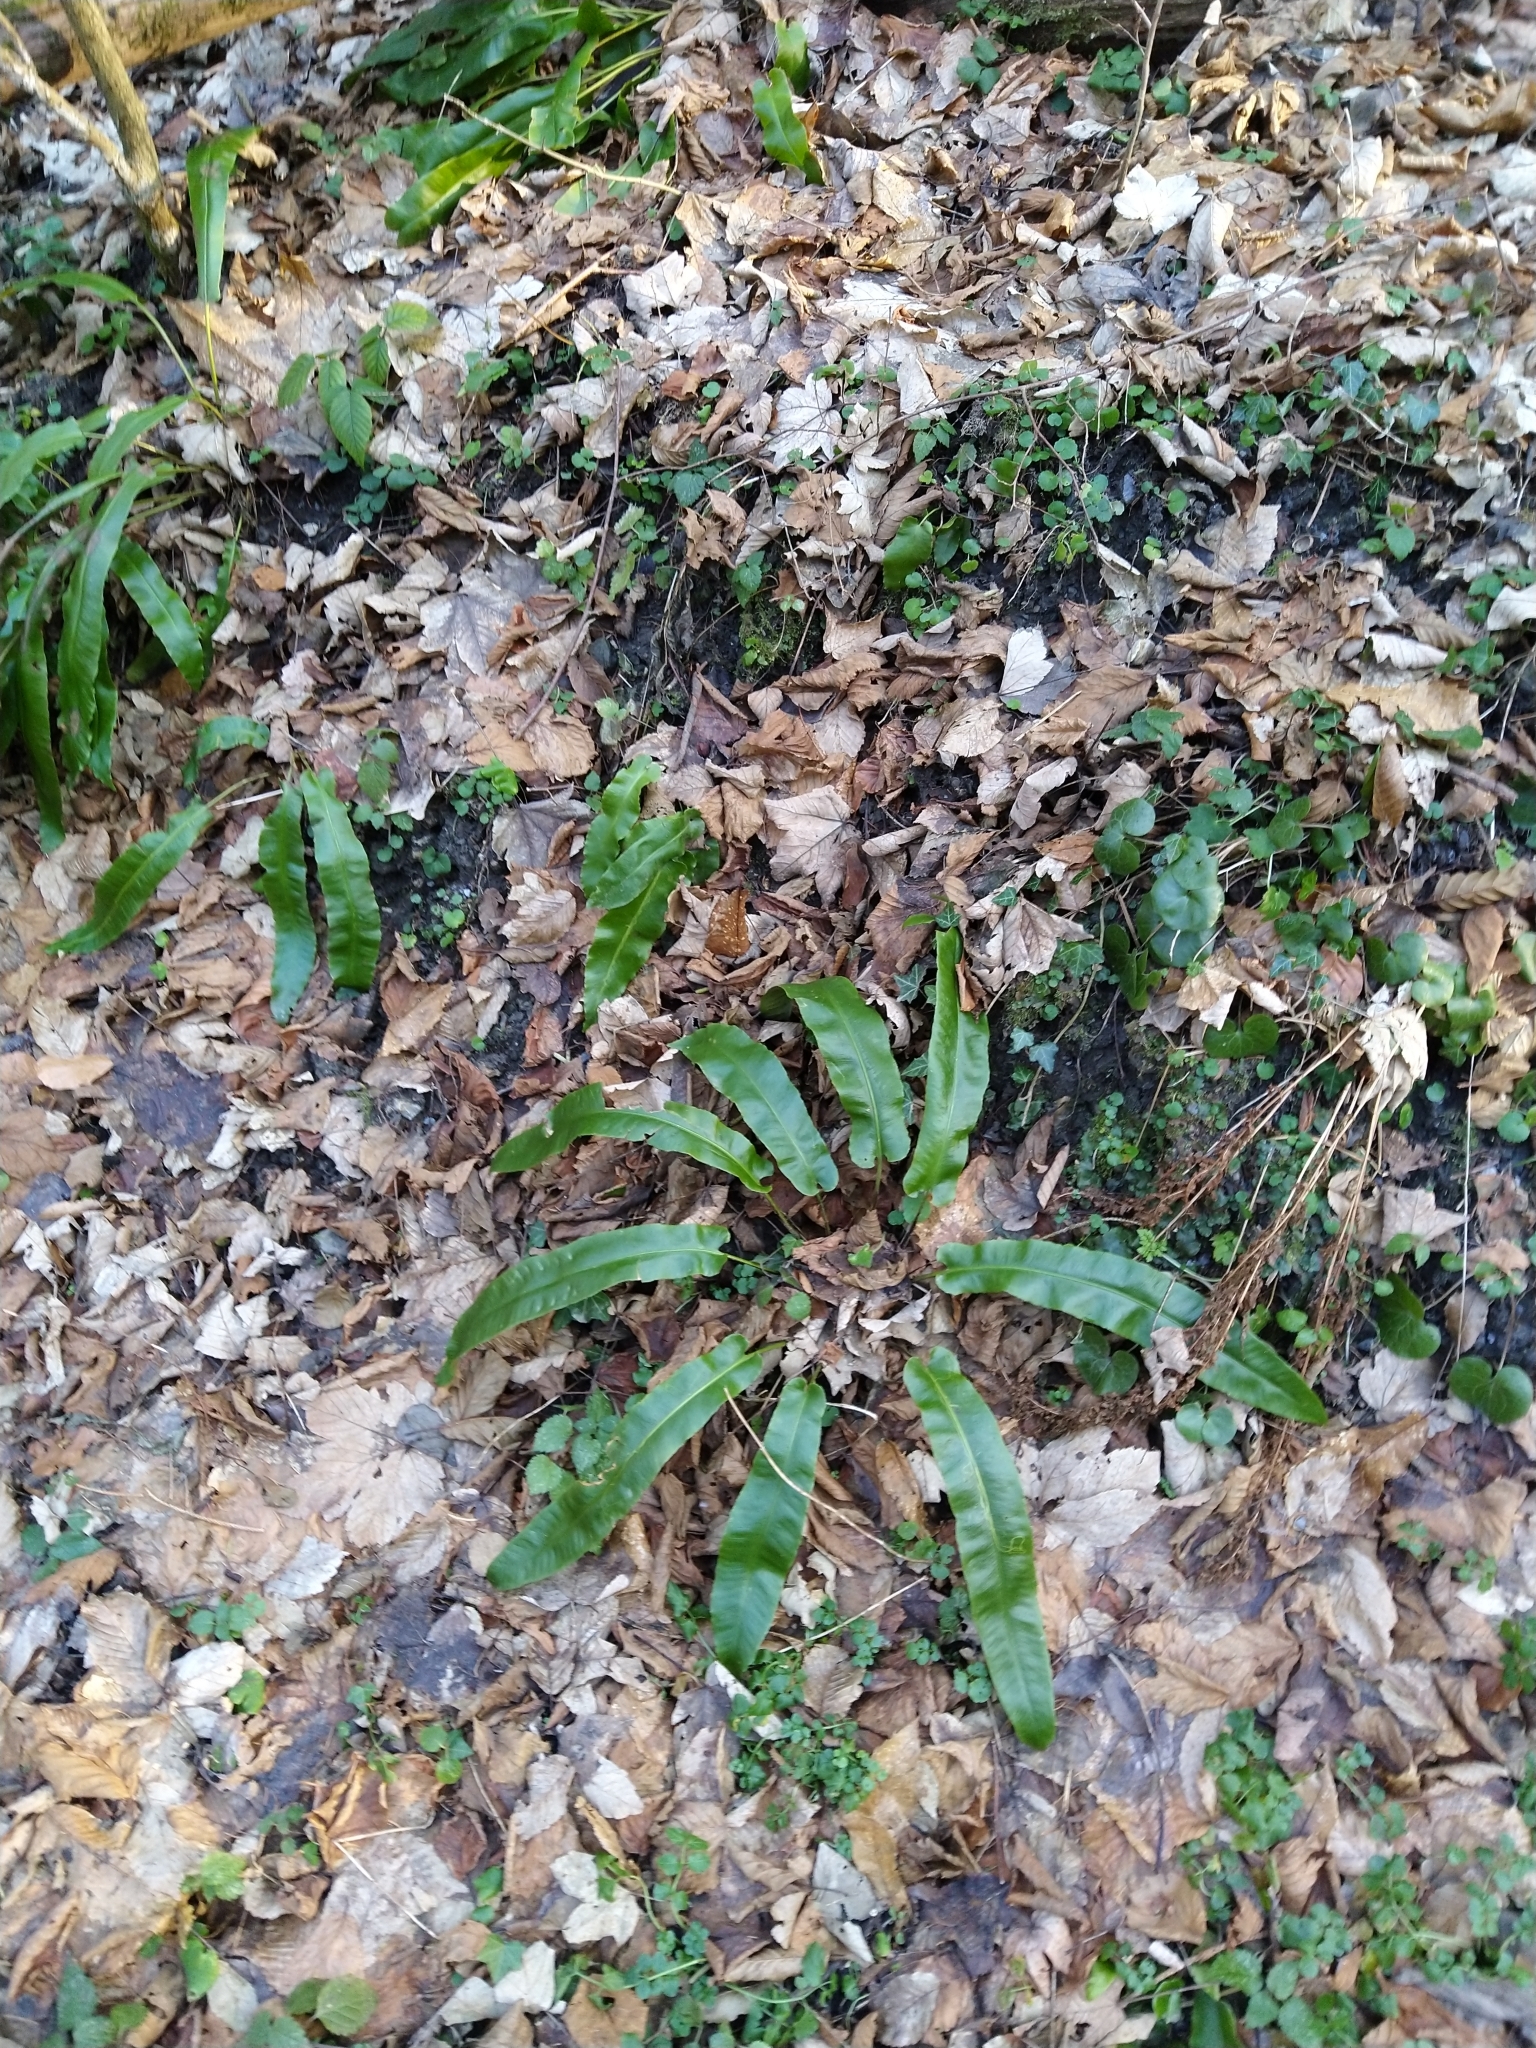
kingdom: Plantae
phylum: Tracheophyta
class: Polypodiopsida
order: Polypodiales
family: Aspleniaceae
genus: Asplenium
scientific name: Asplenium scolopendrium
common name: Hart's-tongue fern
